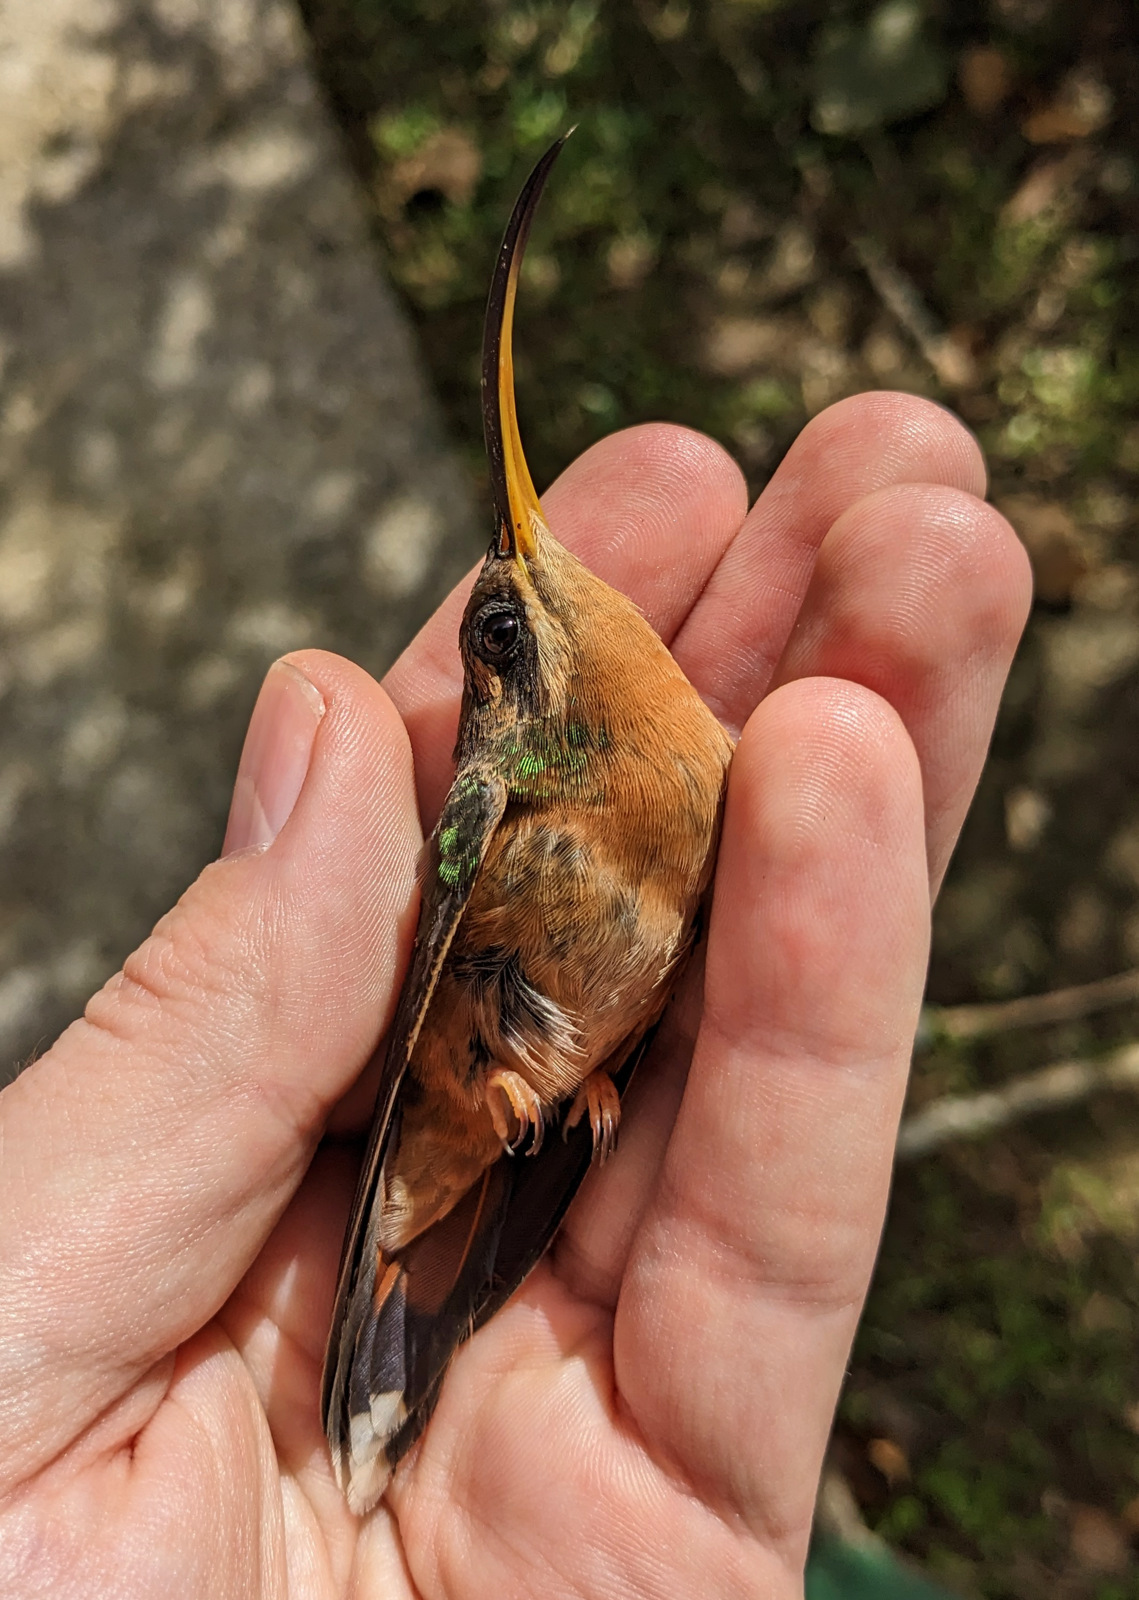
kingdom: Animalia
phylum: Chordata
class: Aves
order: Apodiformes
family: Trochilidae
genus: Glaucis
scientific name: Glaucis hirsutus
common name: Rufous-breasted hermit
